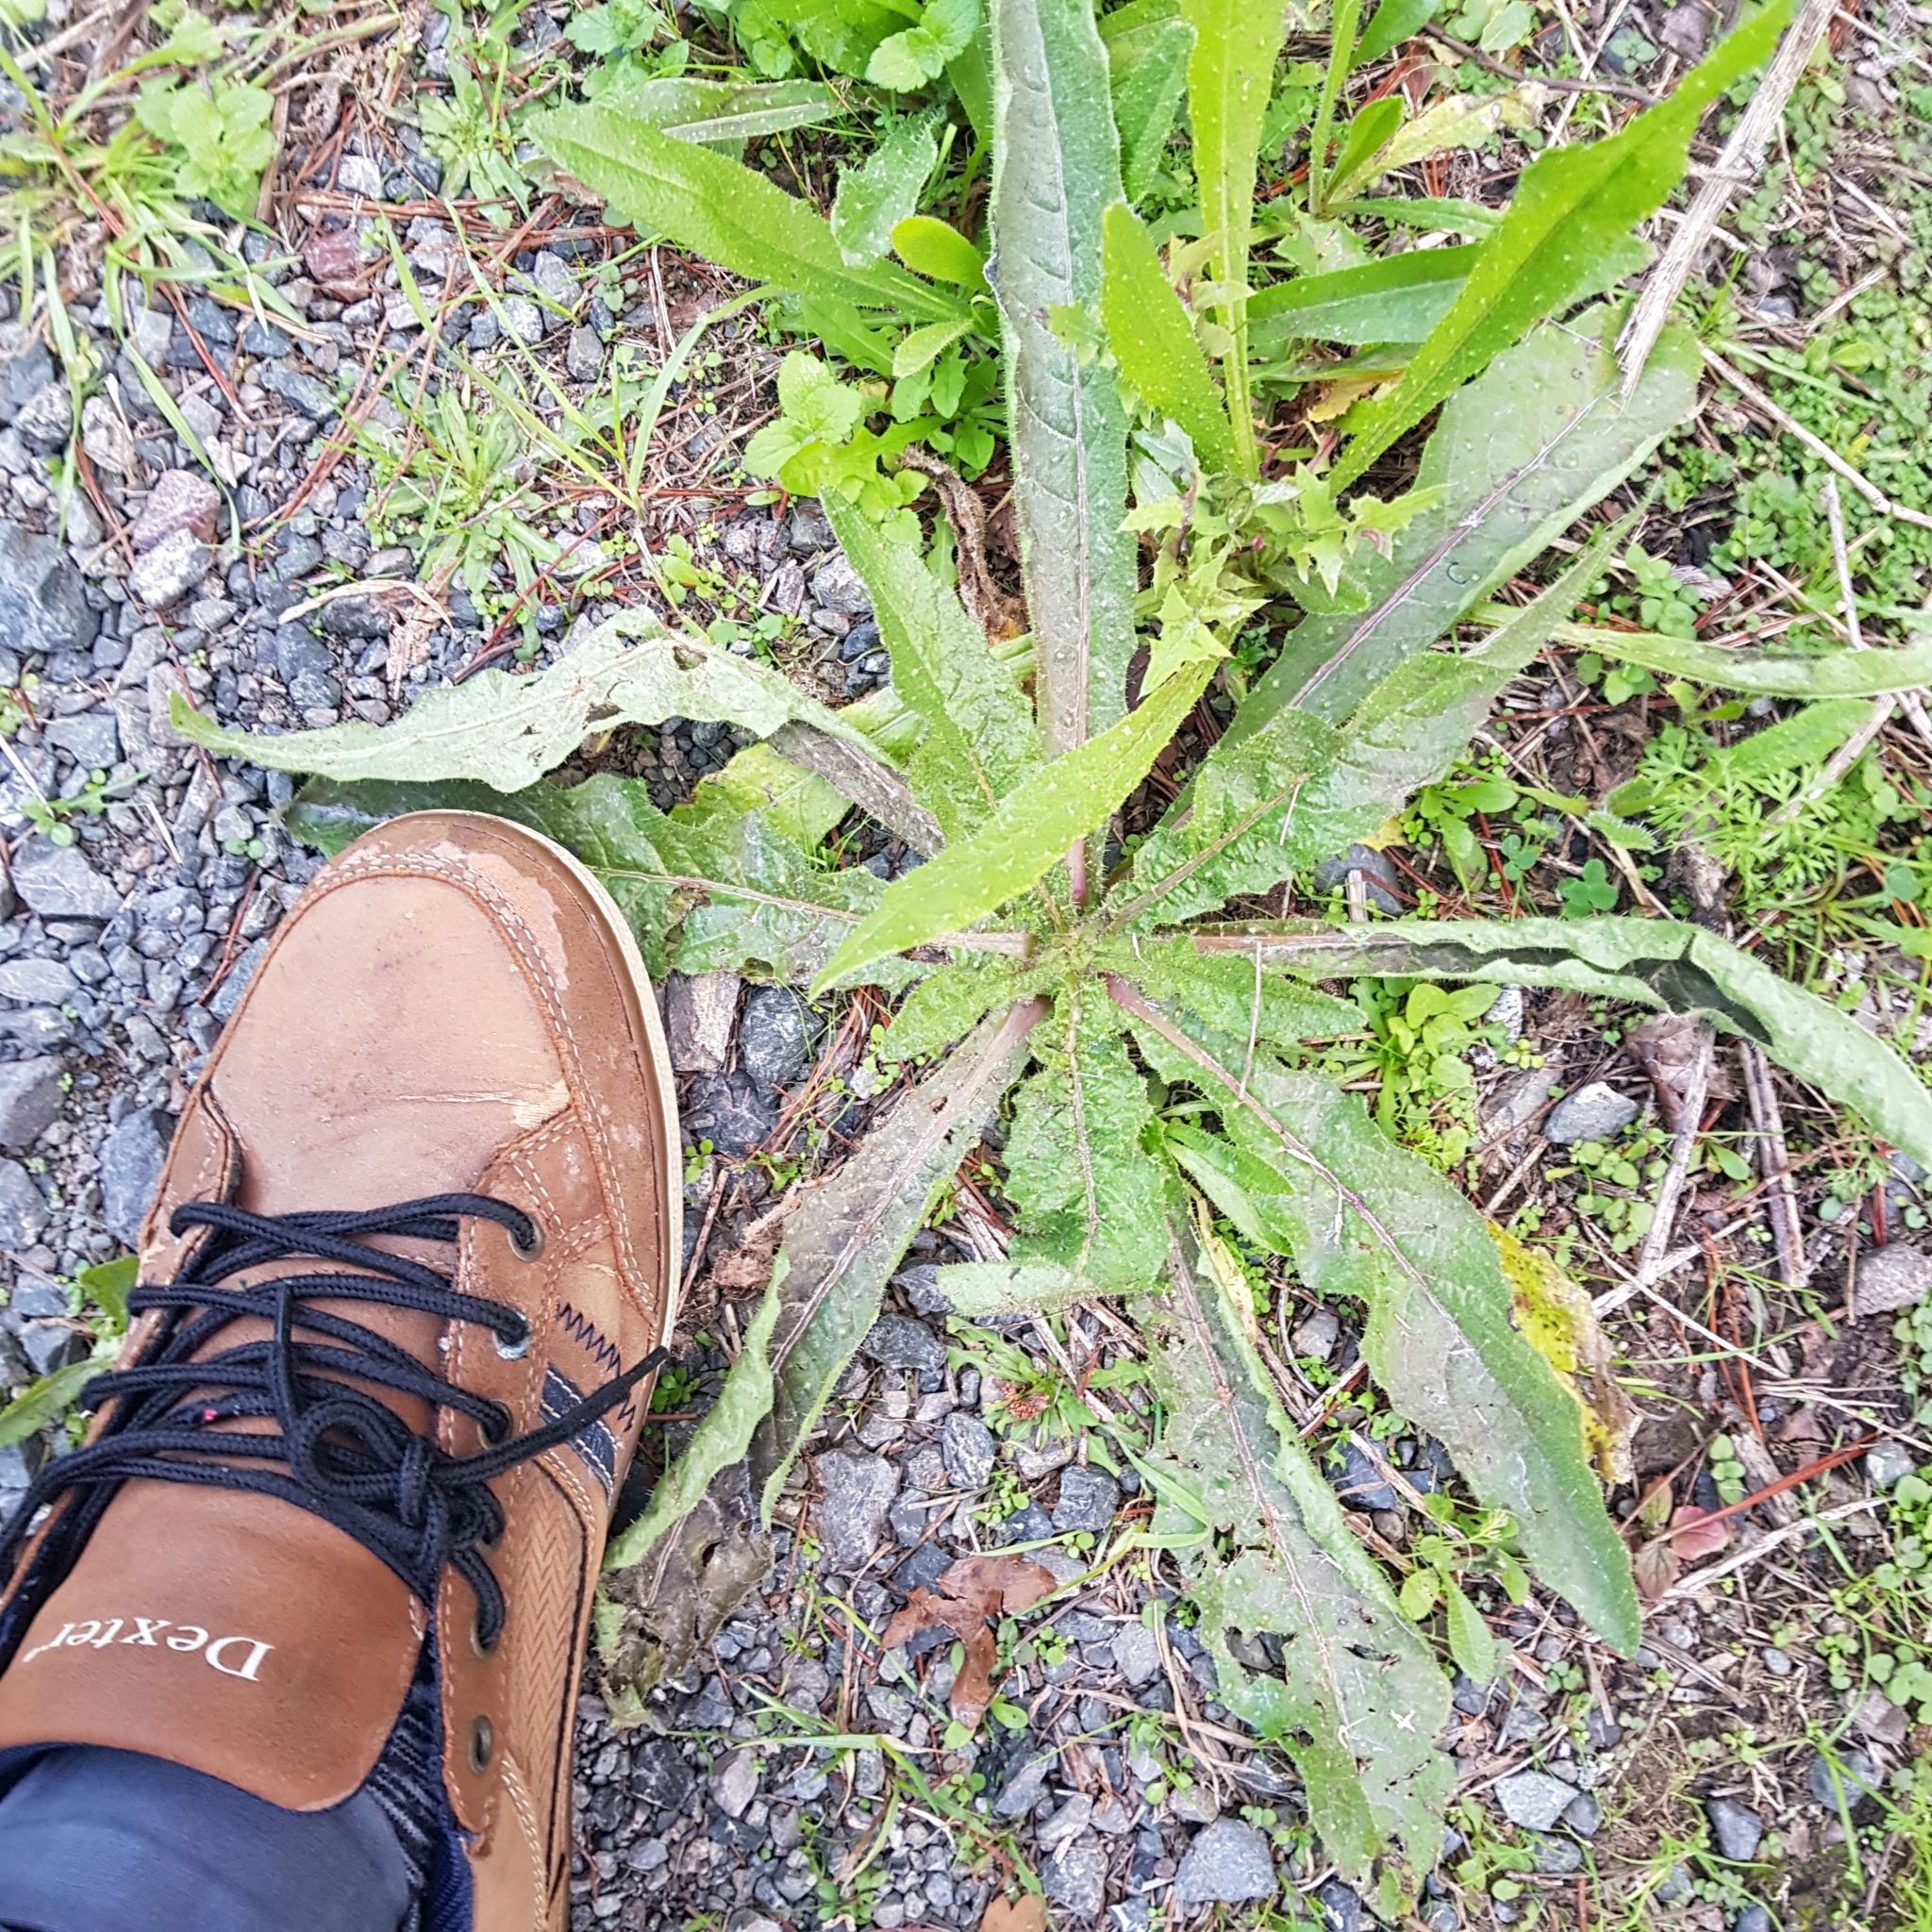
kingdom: Plantae
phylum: Tracheophyta
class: Magnoliopsida
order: Asterales
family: Asteraceae
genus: Helminthotheca
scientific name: Helminthotheca echioides
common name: Ox-tongue
